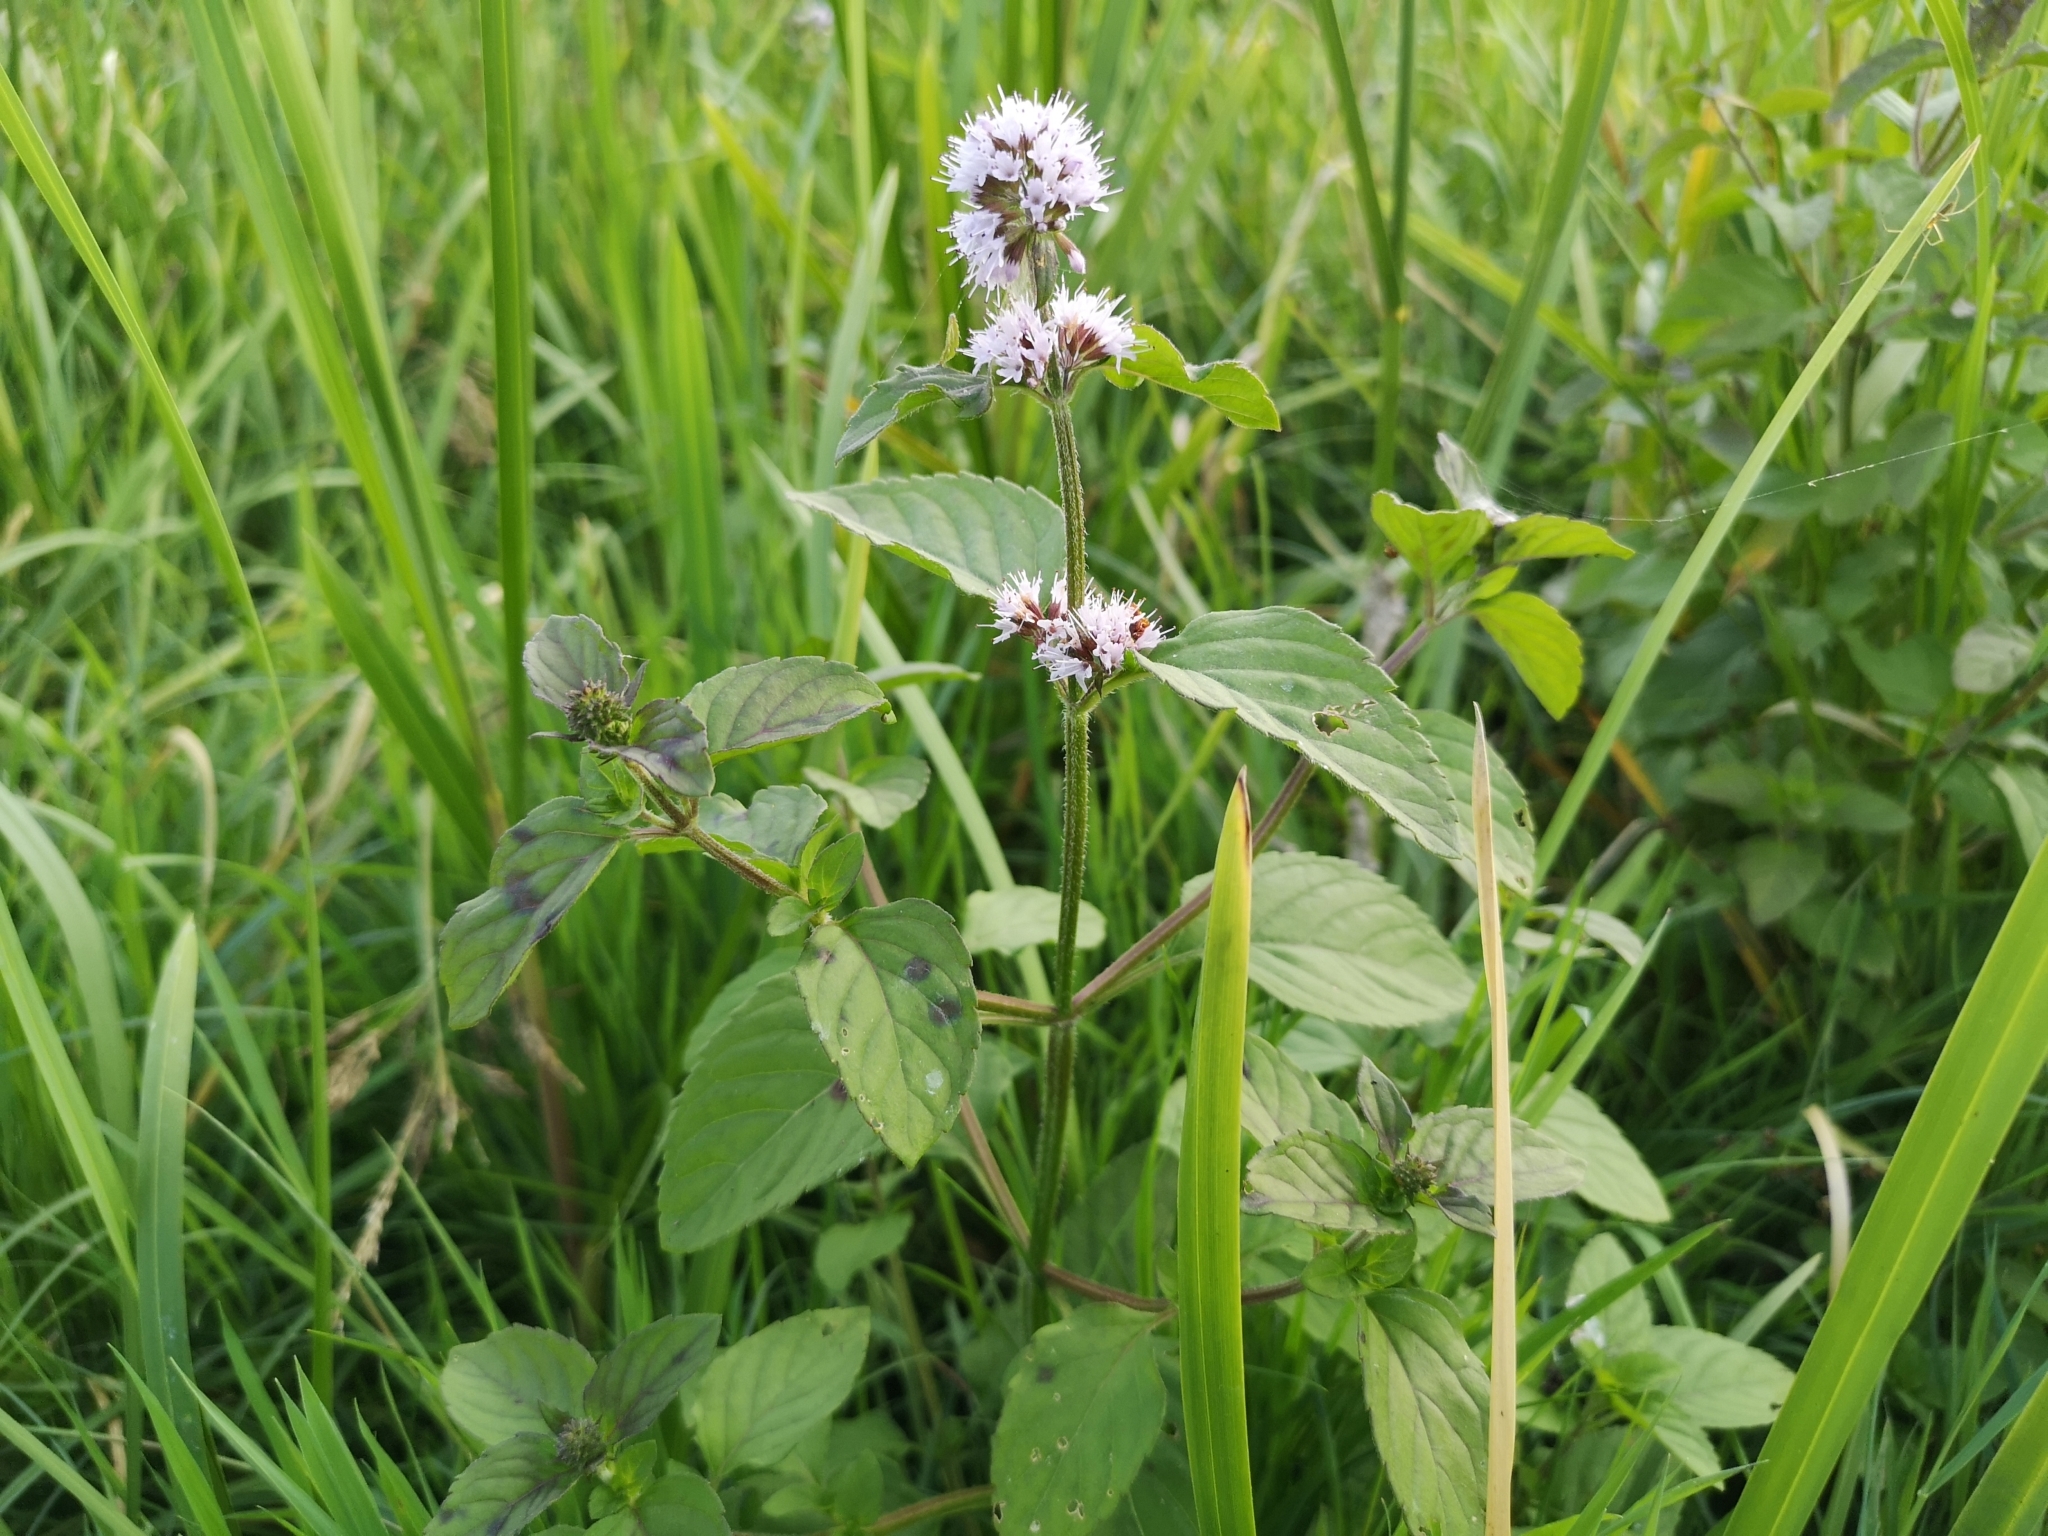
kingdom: Plantae
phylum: Tracheophyta
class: Magnoliopsida
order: Lamiales
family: Lamiaceae
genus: Mentha
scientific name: Mentha aquatica
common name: Water mint
